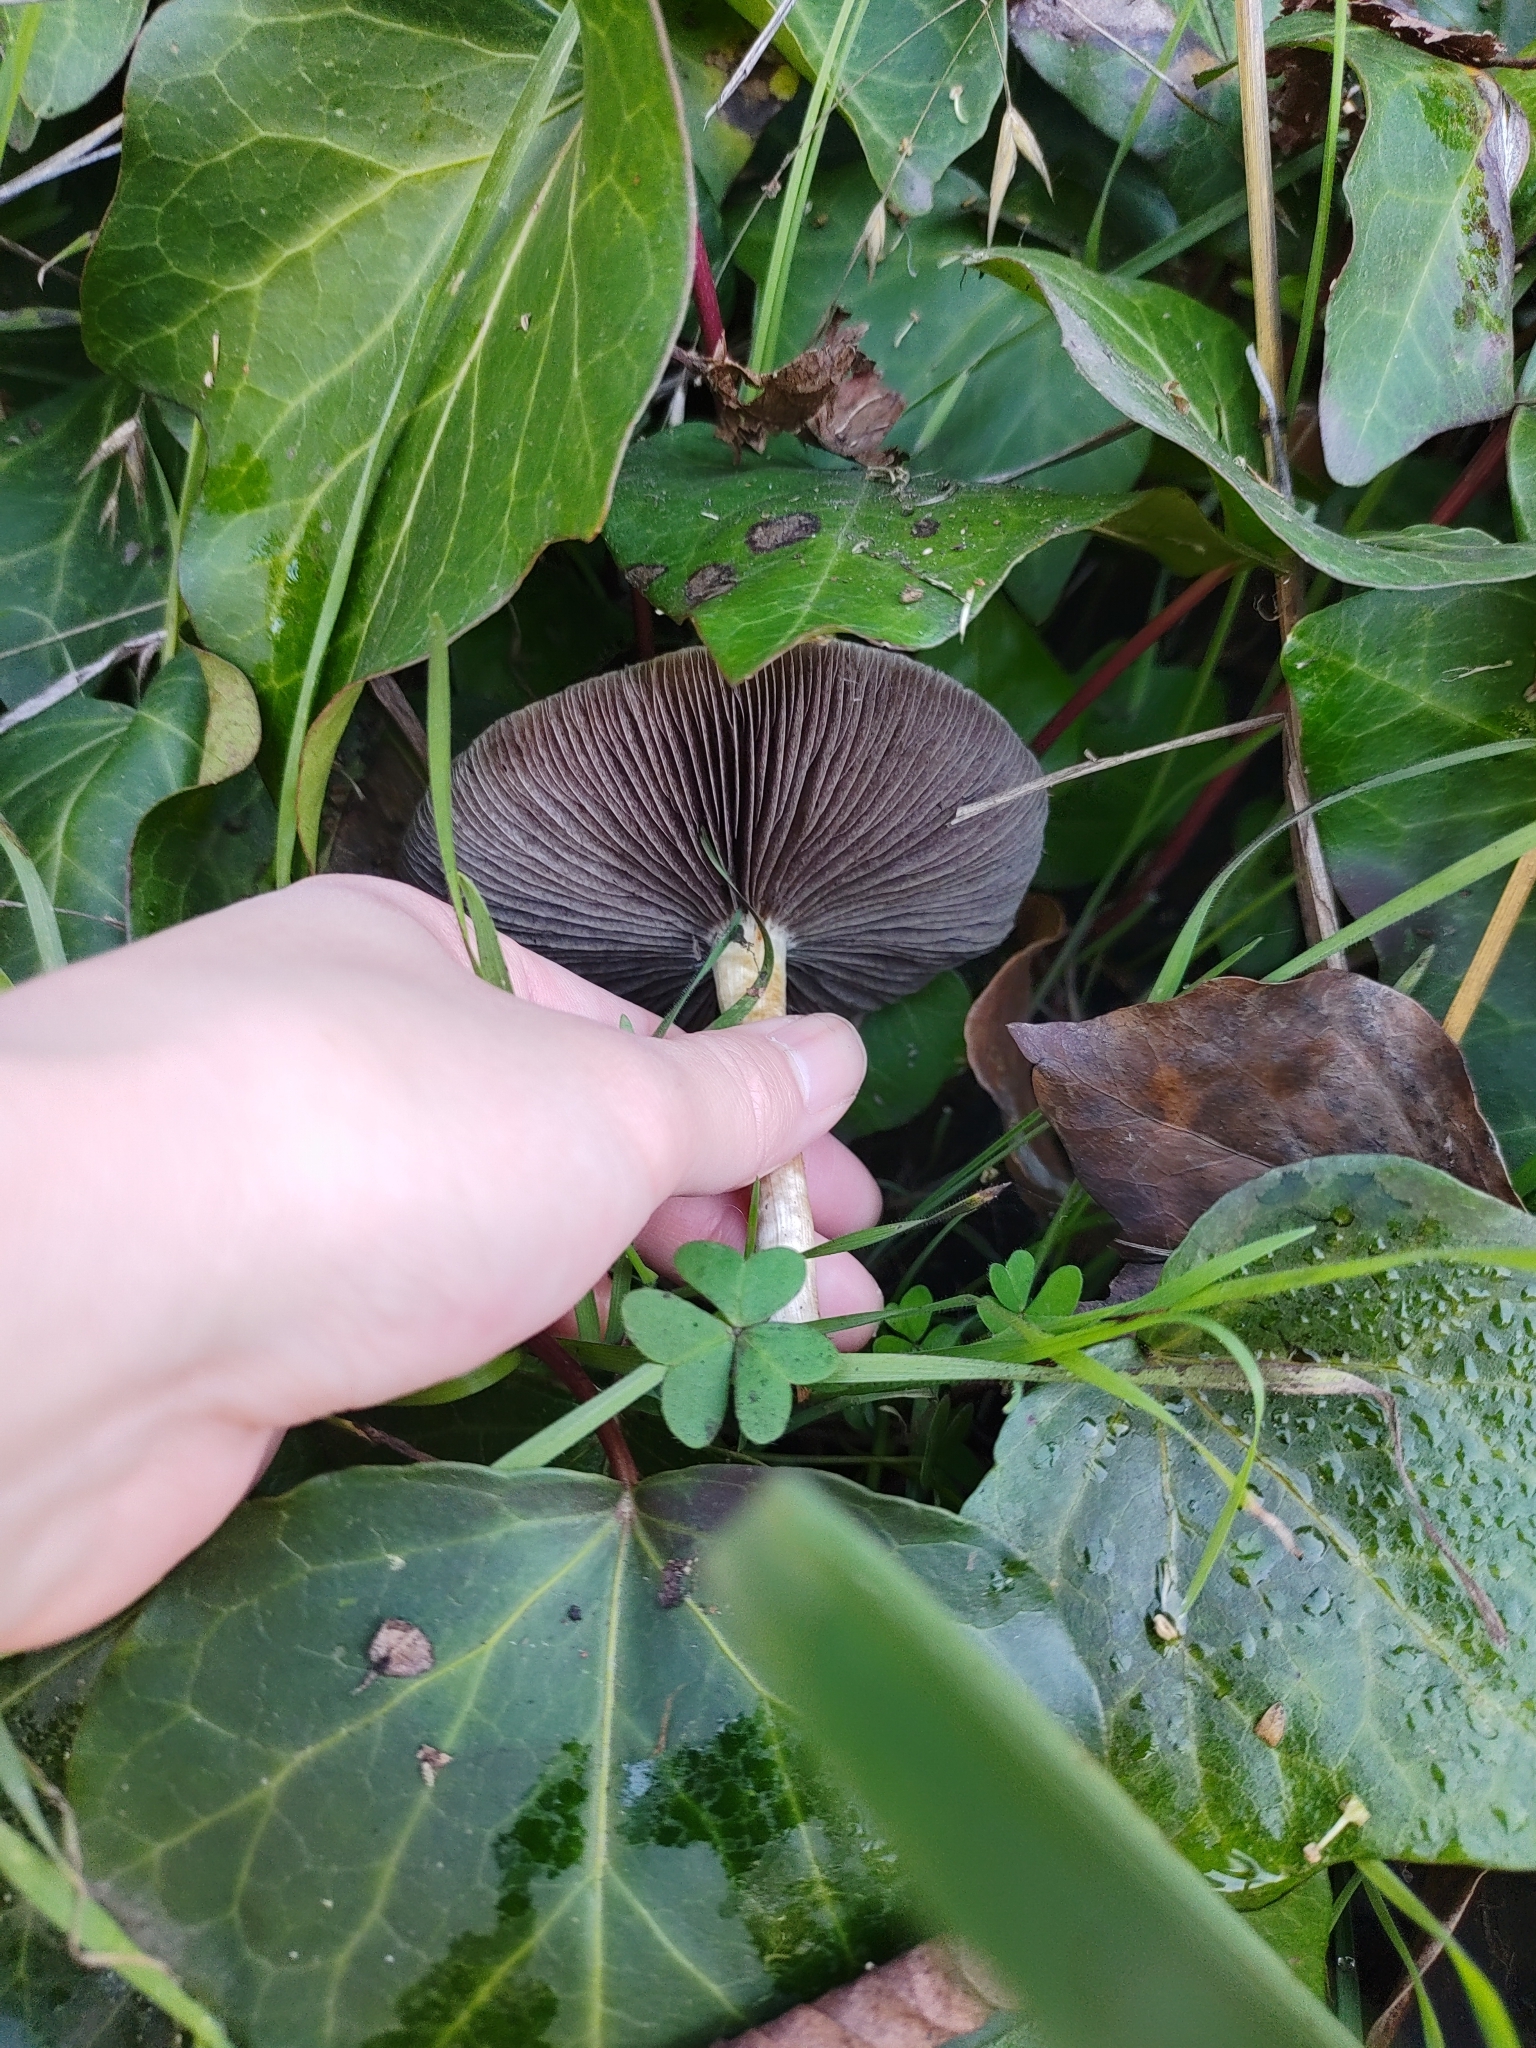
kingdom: Fungi
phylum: Basidiomycota
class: Agaricomycetes
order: Agaricales
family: Strophariaceae
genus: Leratiomyces
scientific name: Leratiomyces percevalii
